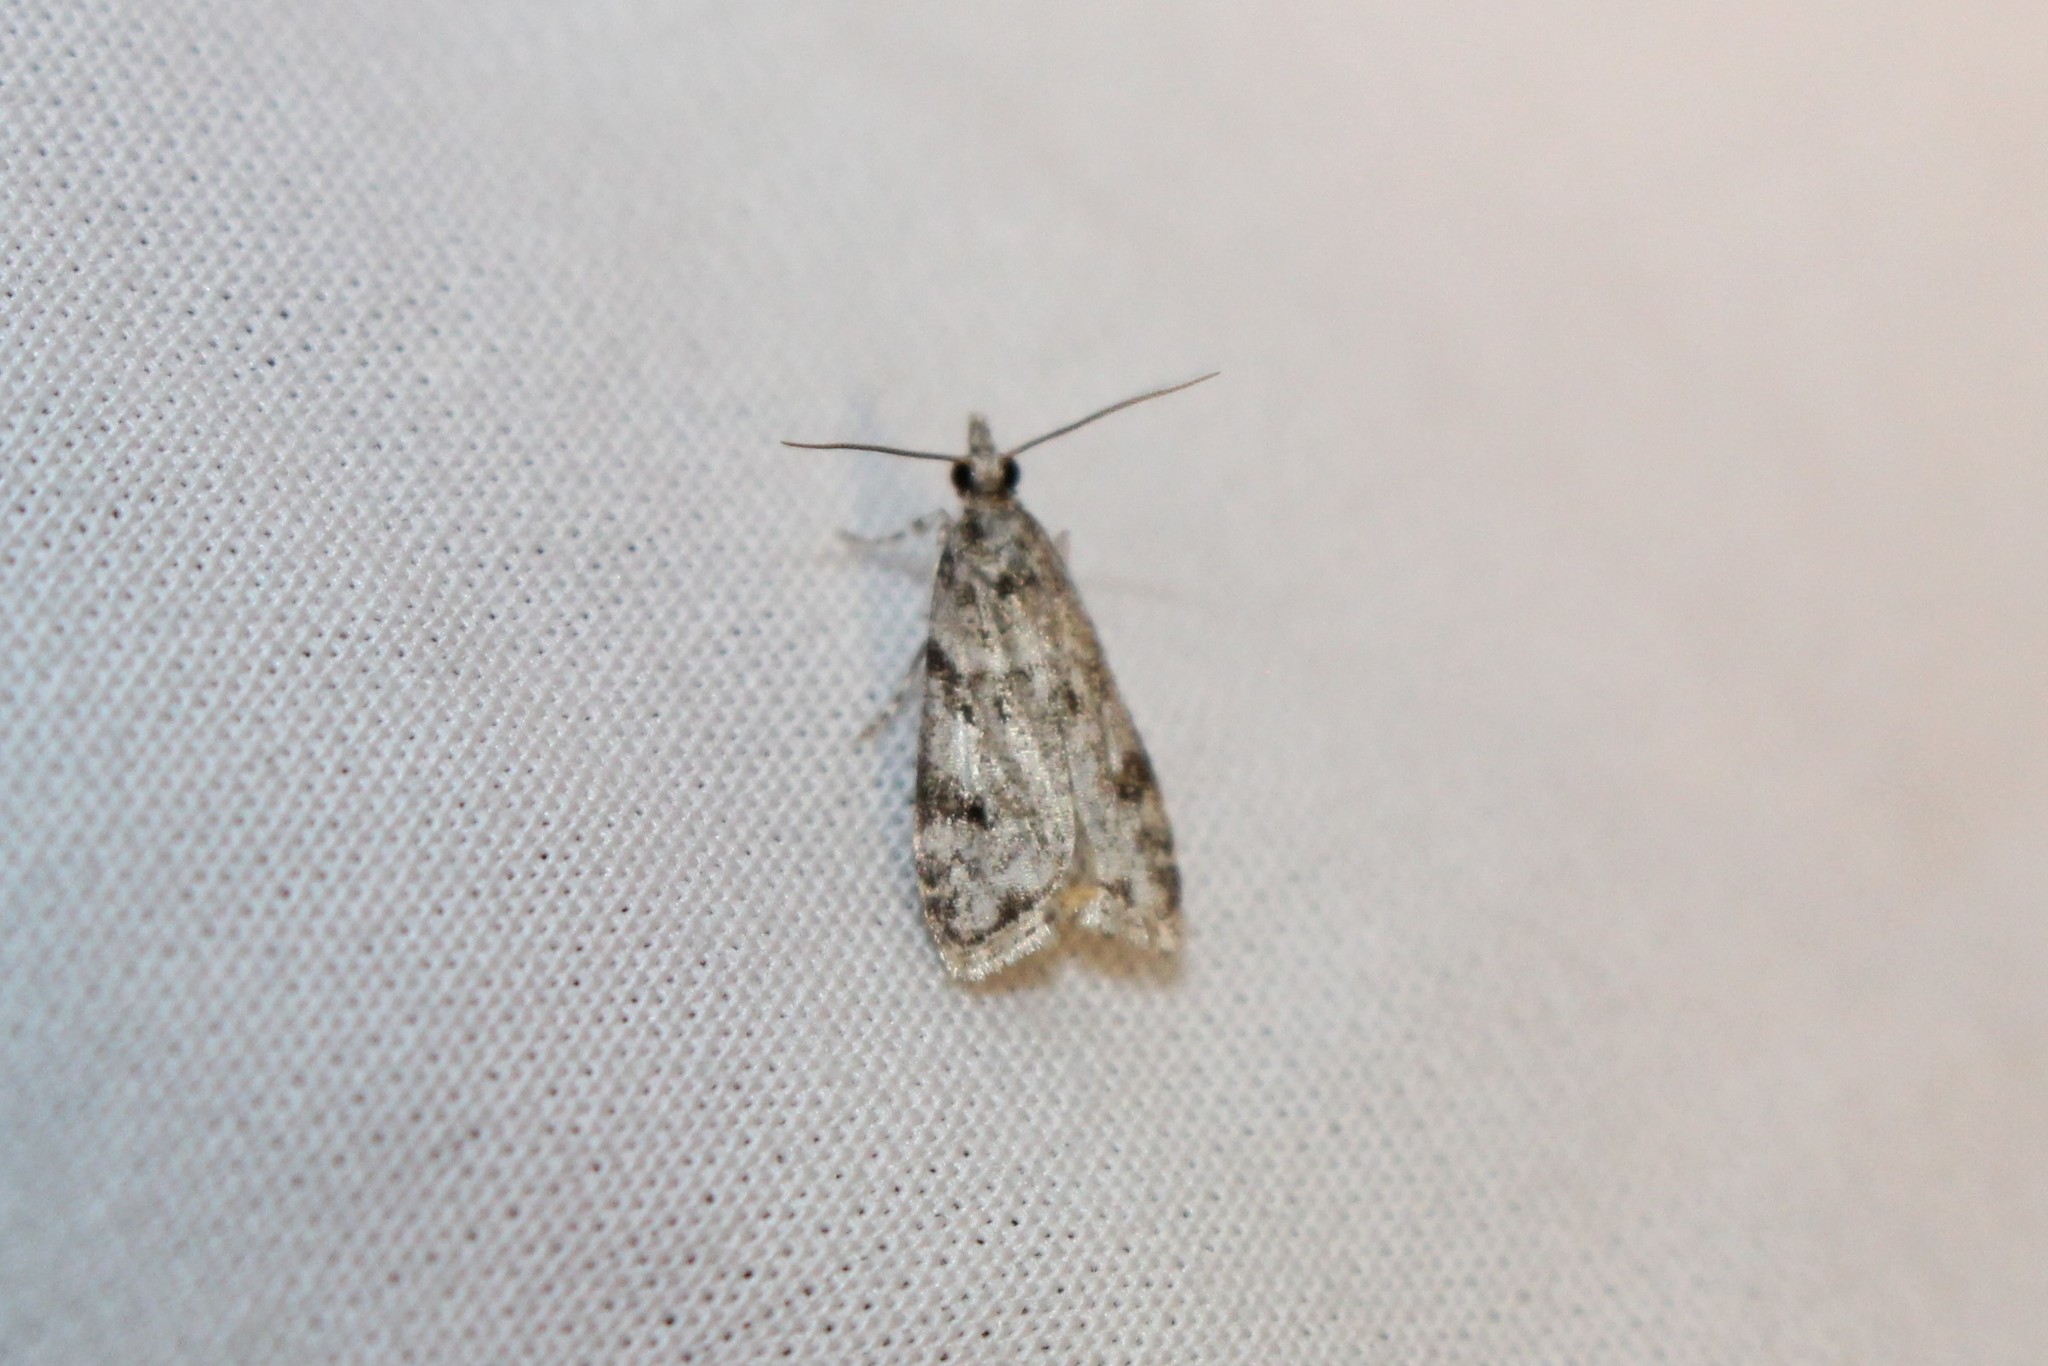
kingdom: Animalia
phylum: Arthropoda
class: Insecta
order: Lepidoptera
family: Crambidae
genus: Scoparia
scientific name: Scoparia biplagialis
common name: Double-striped scoparia moth
